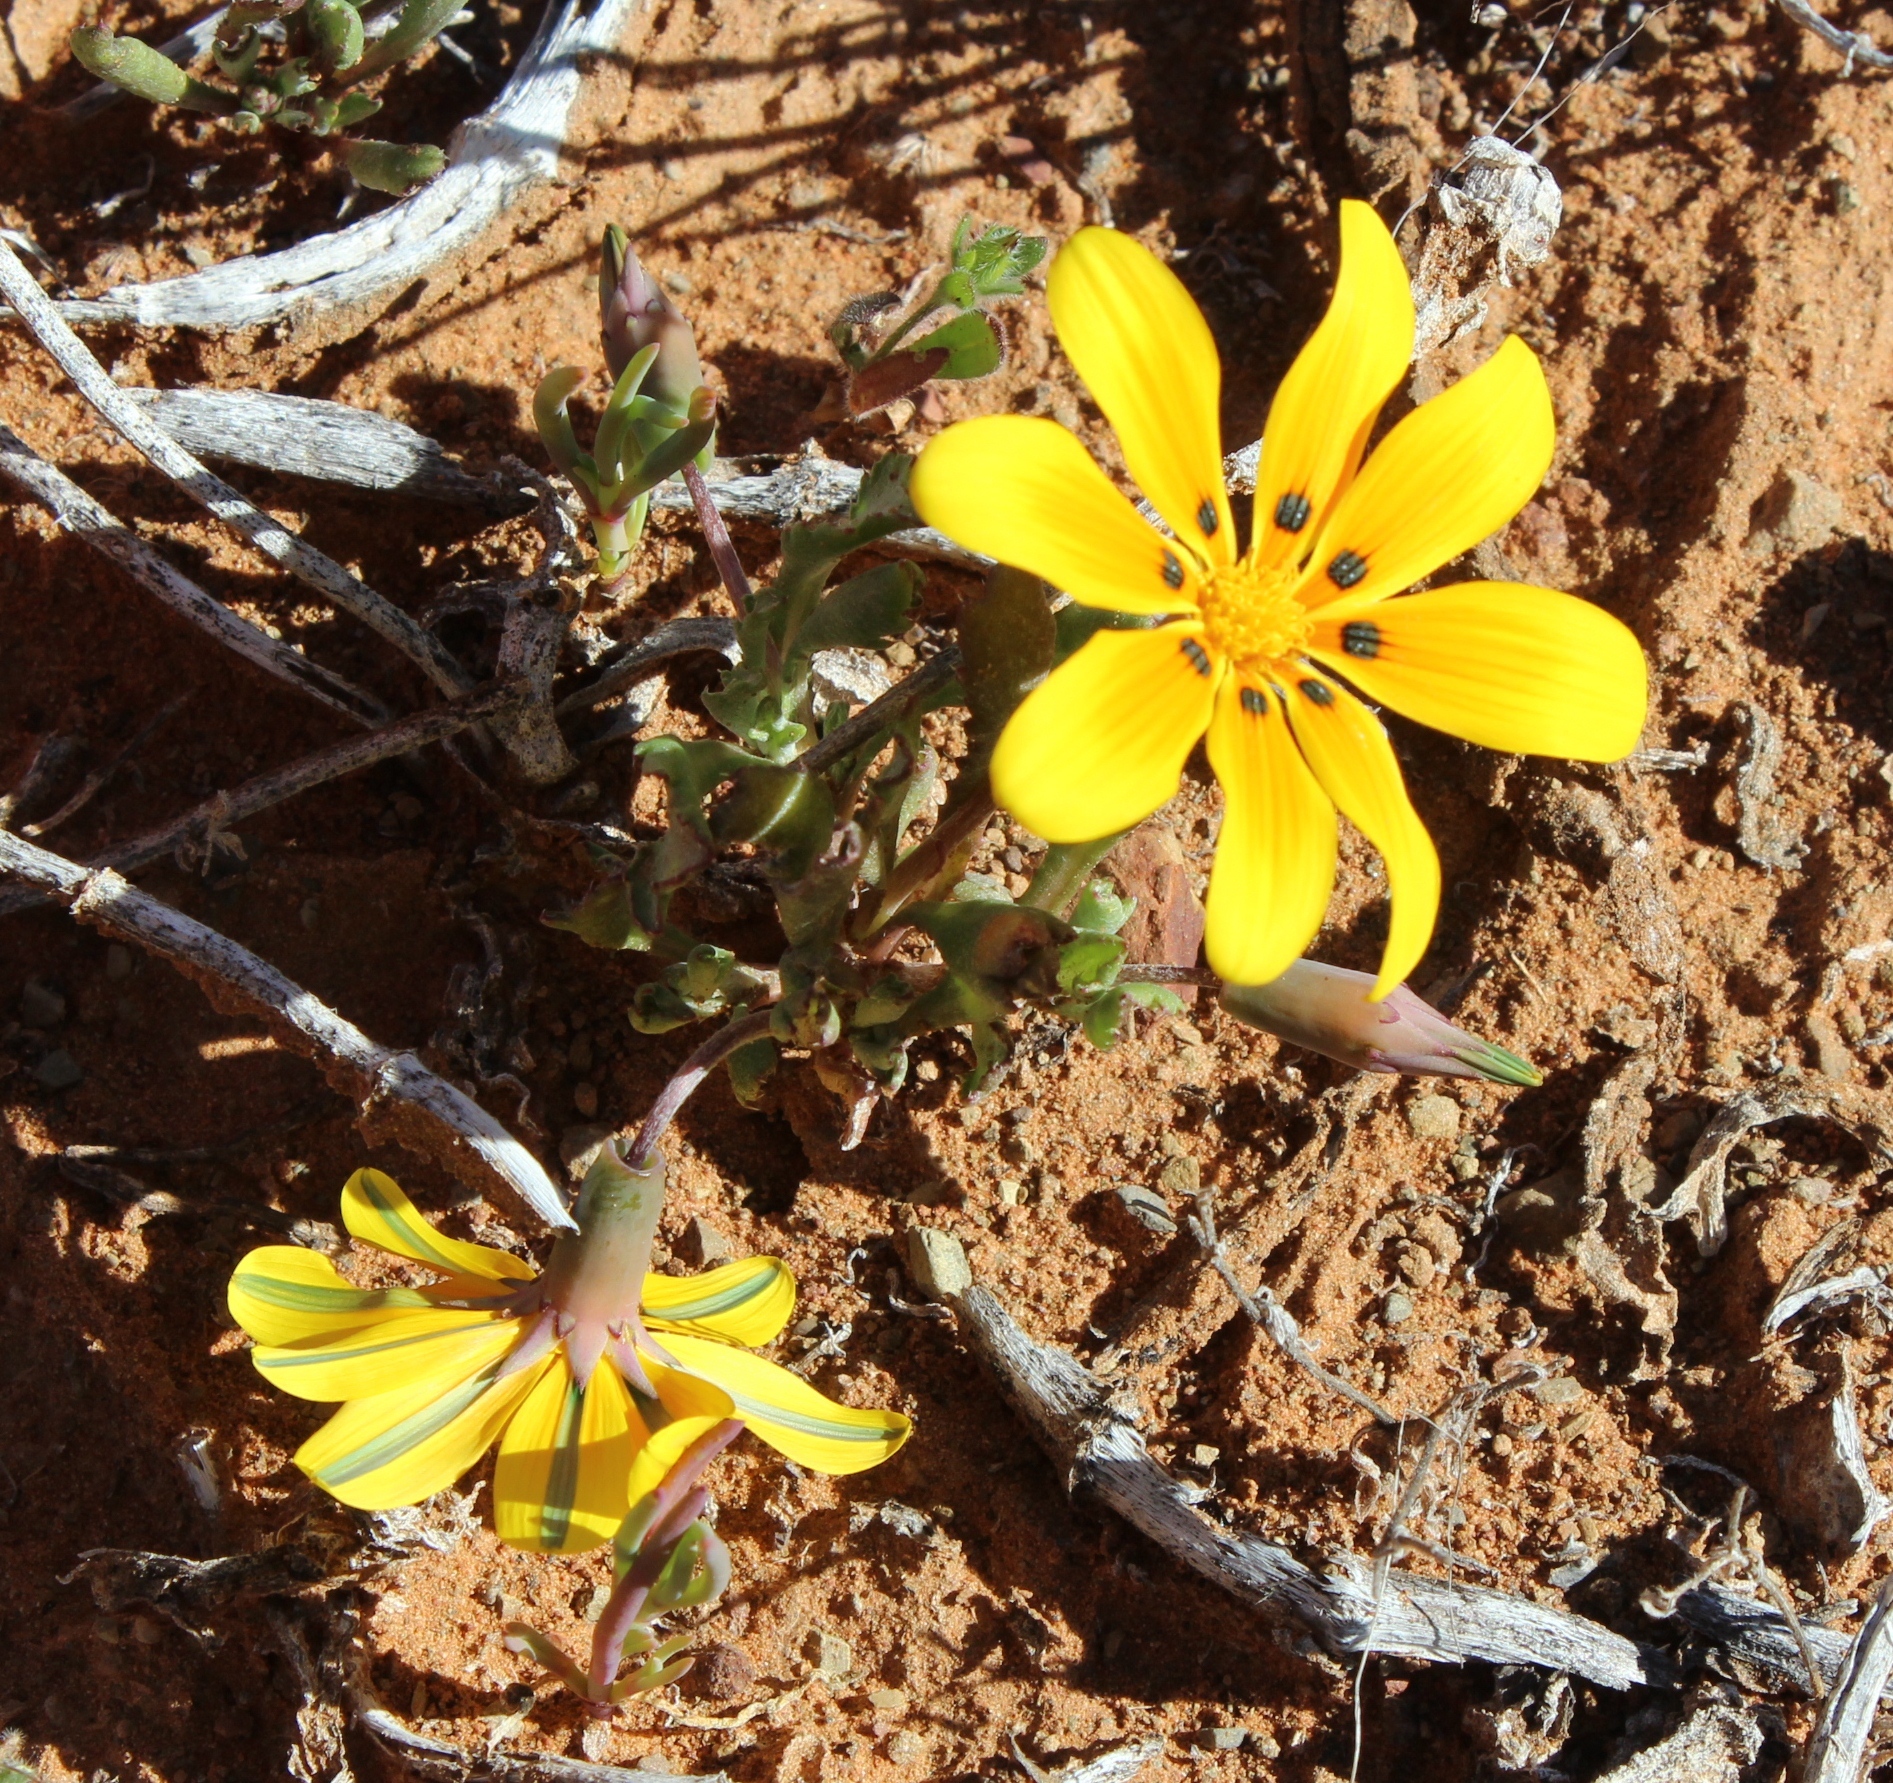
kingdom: Plantae
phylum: Tracheophyta
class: Magnoliopsida
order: Asterales
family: Asteraceae
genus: Gazania
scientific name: Gazania lichtensteinii
